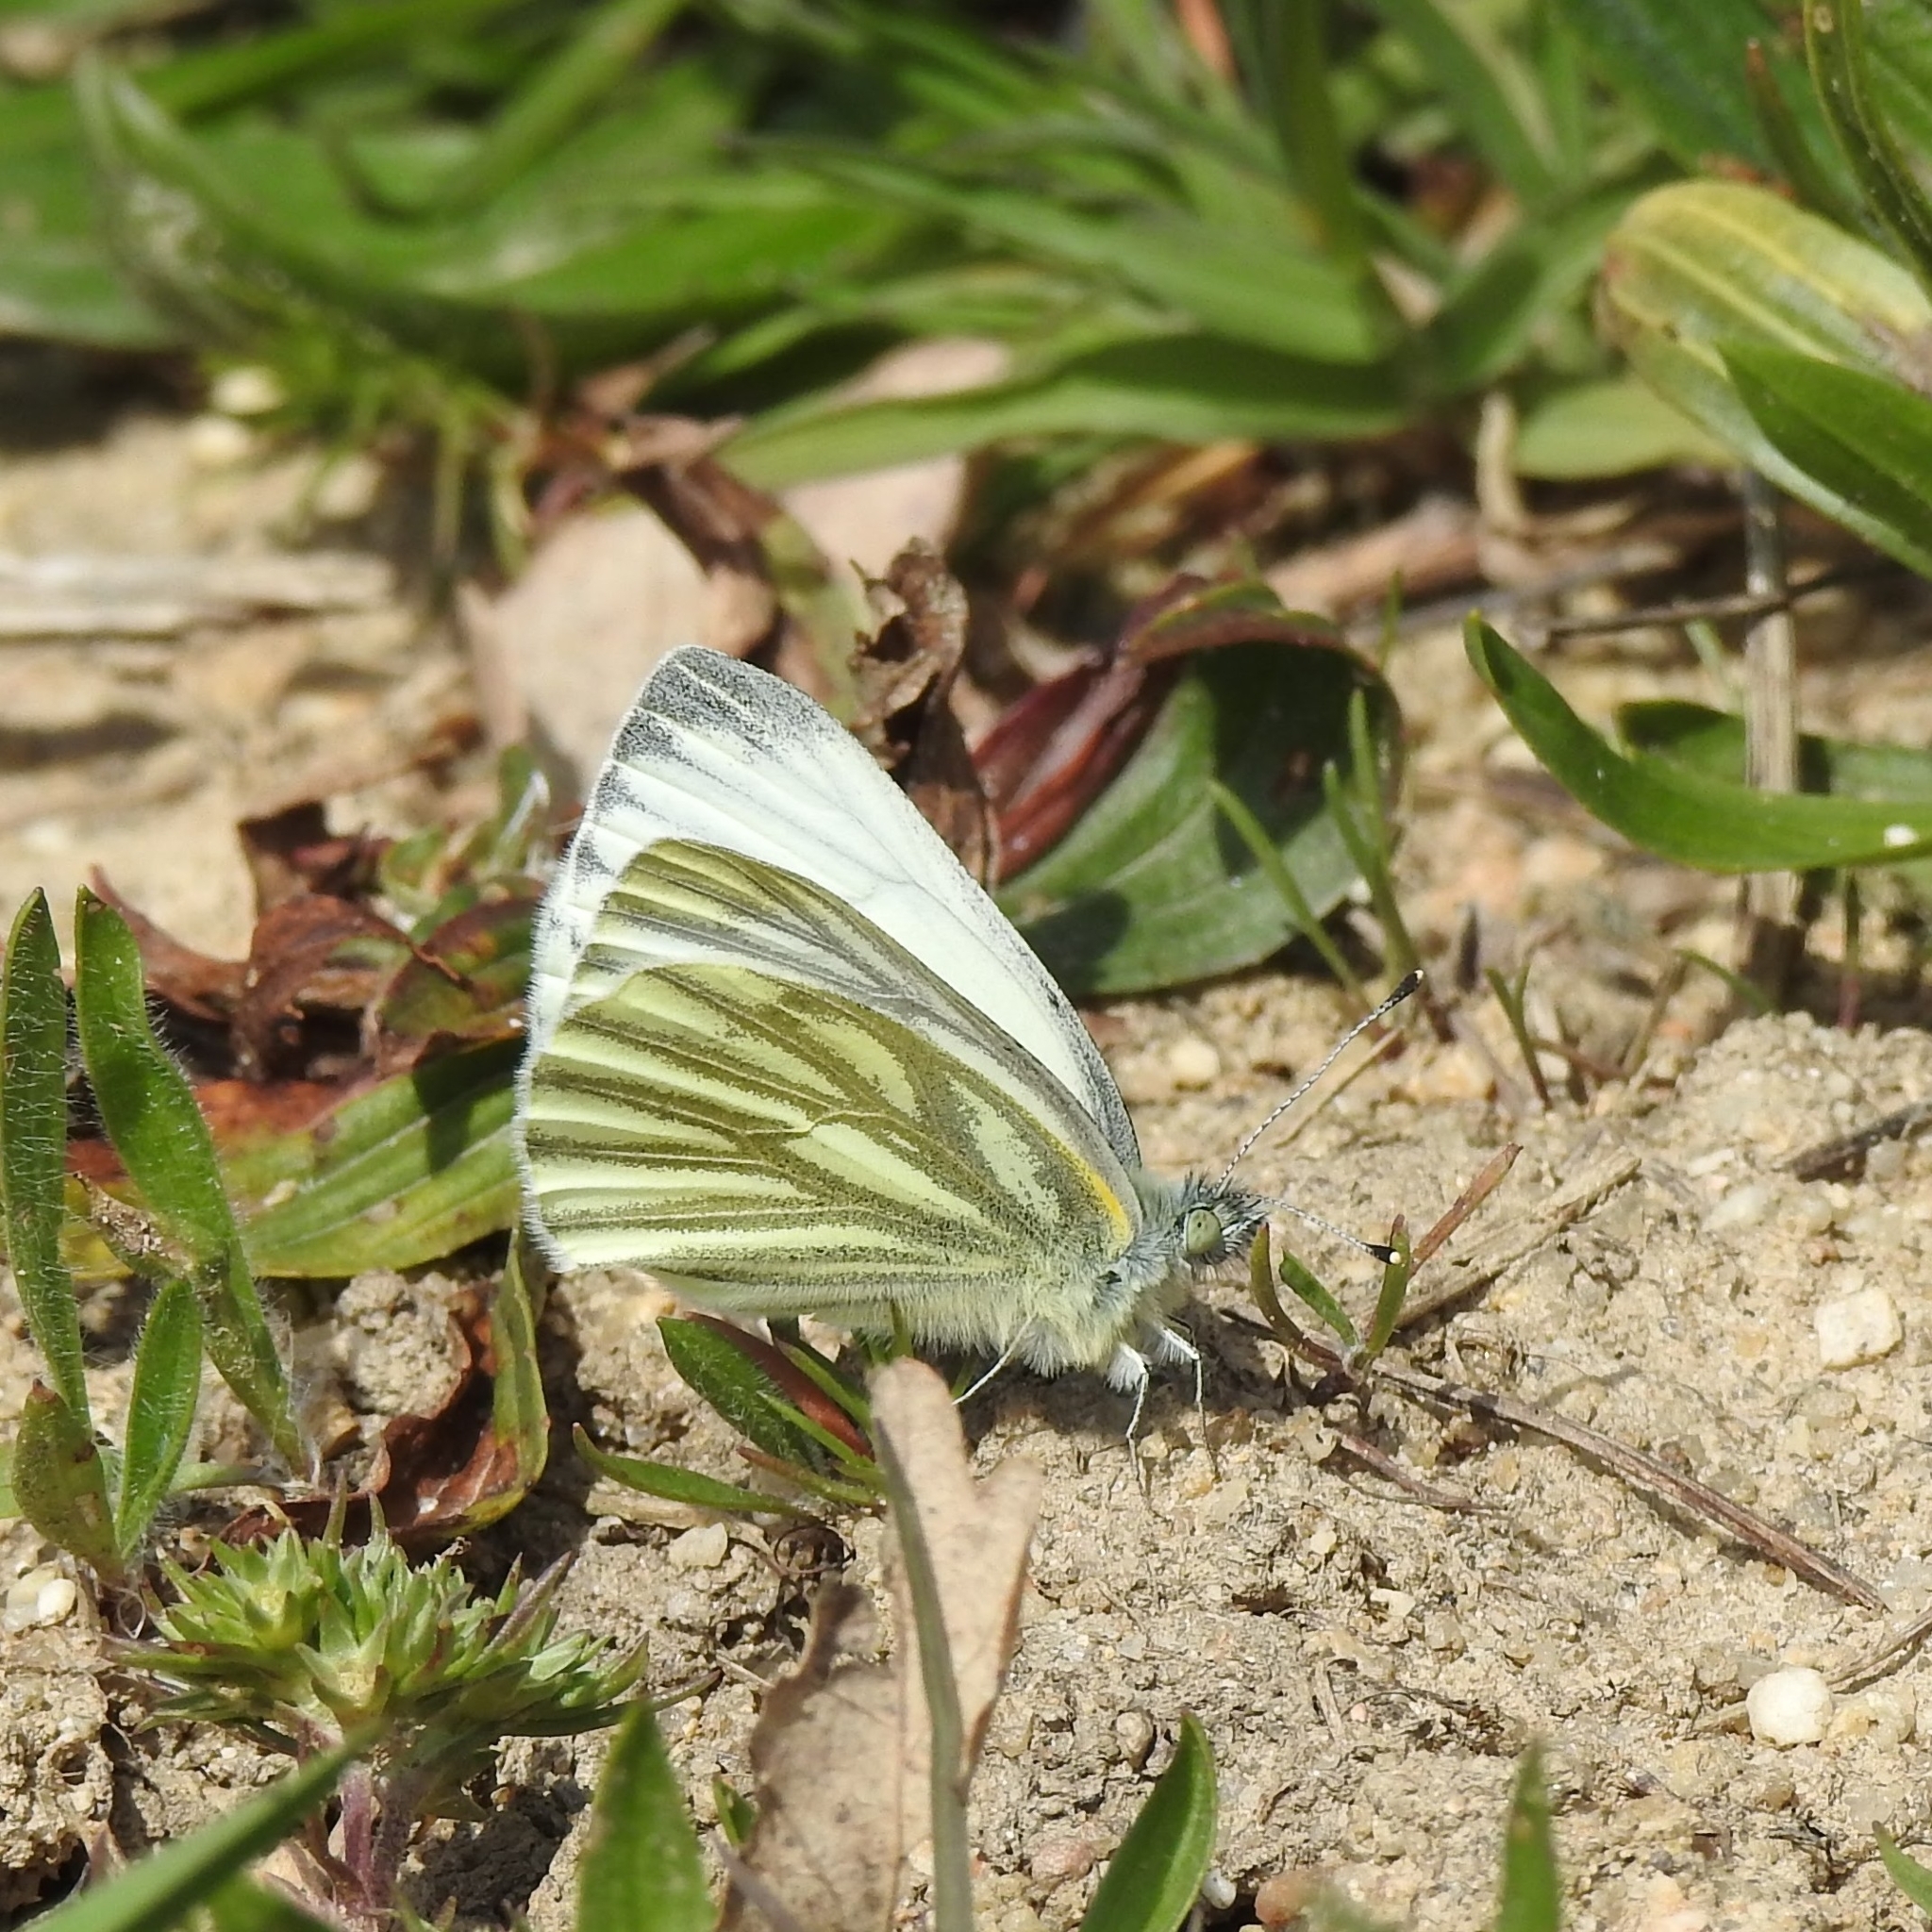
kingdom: Animalia
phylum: Arthropoda
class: Insecta
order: Lepidoptera
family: Pieridae
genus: Pieris
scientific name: Pieris napi
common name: Green-veined white
